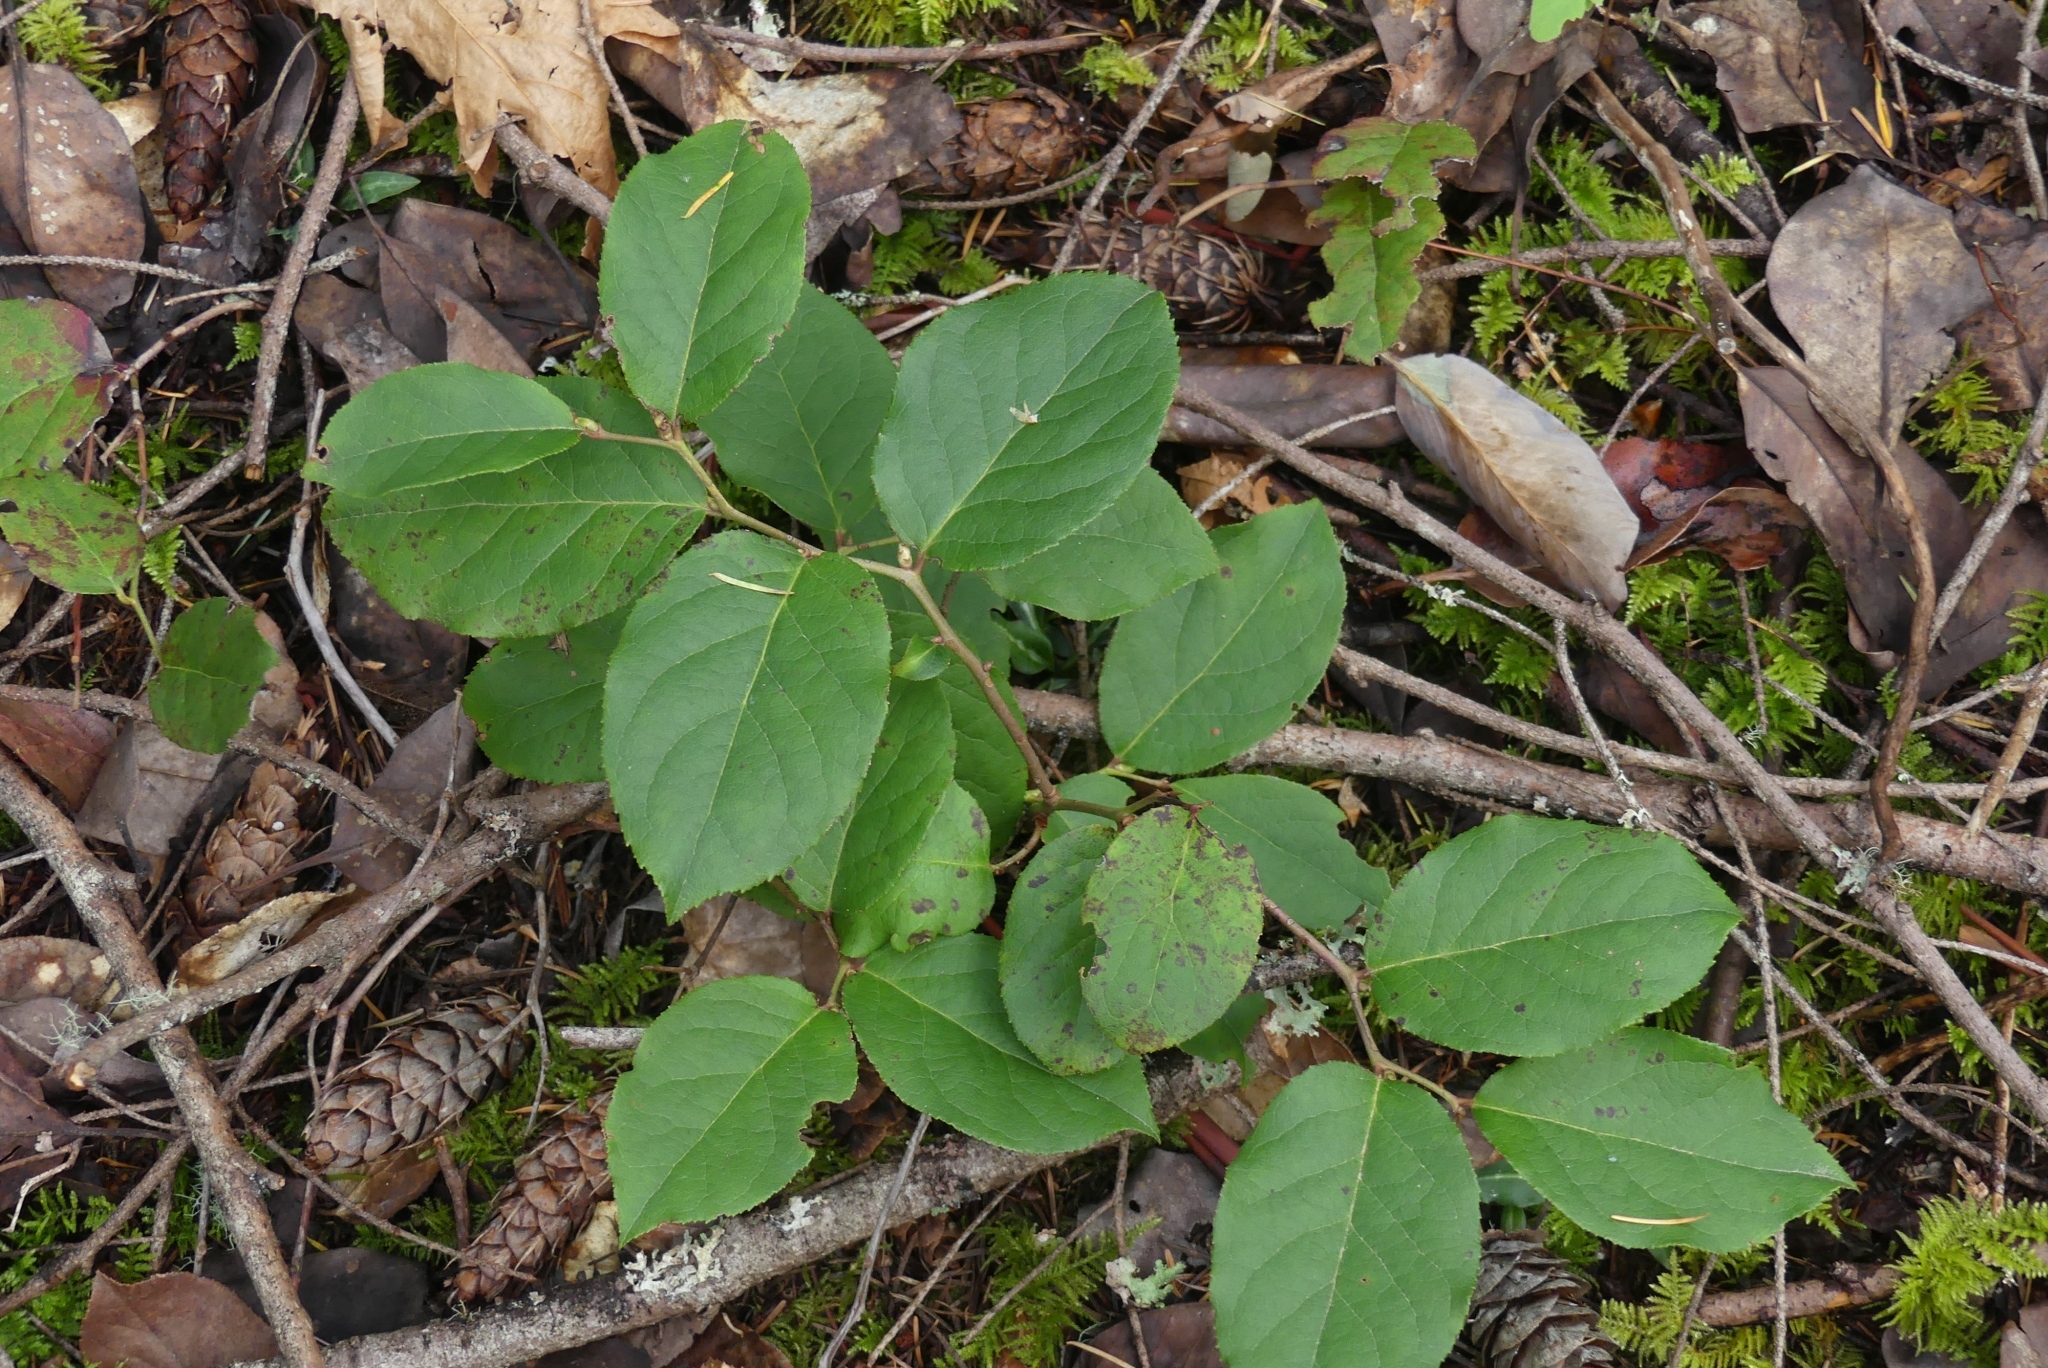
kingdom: Plantae
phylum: Tracheophyta
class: Magnoliopsida
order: Ericales
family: Ericaceae
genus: Gaultheria
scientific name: Gaultheria shallon
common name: Shallon
